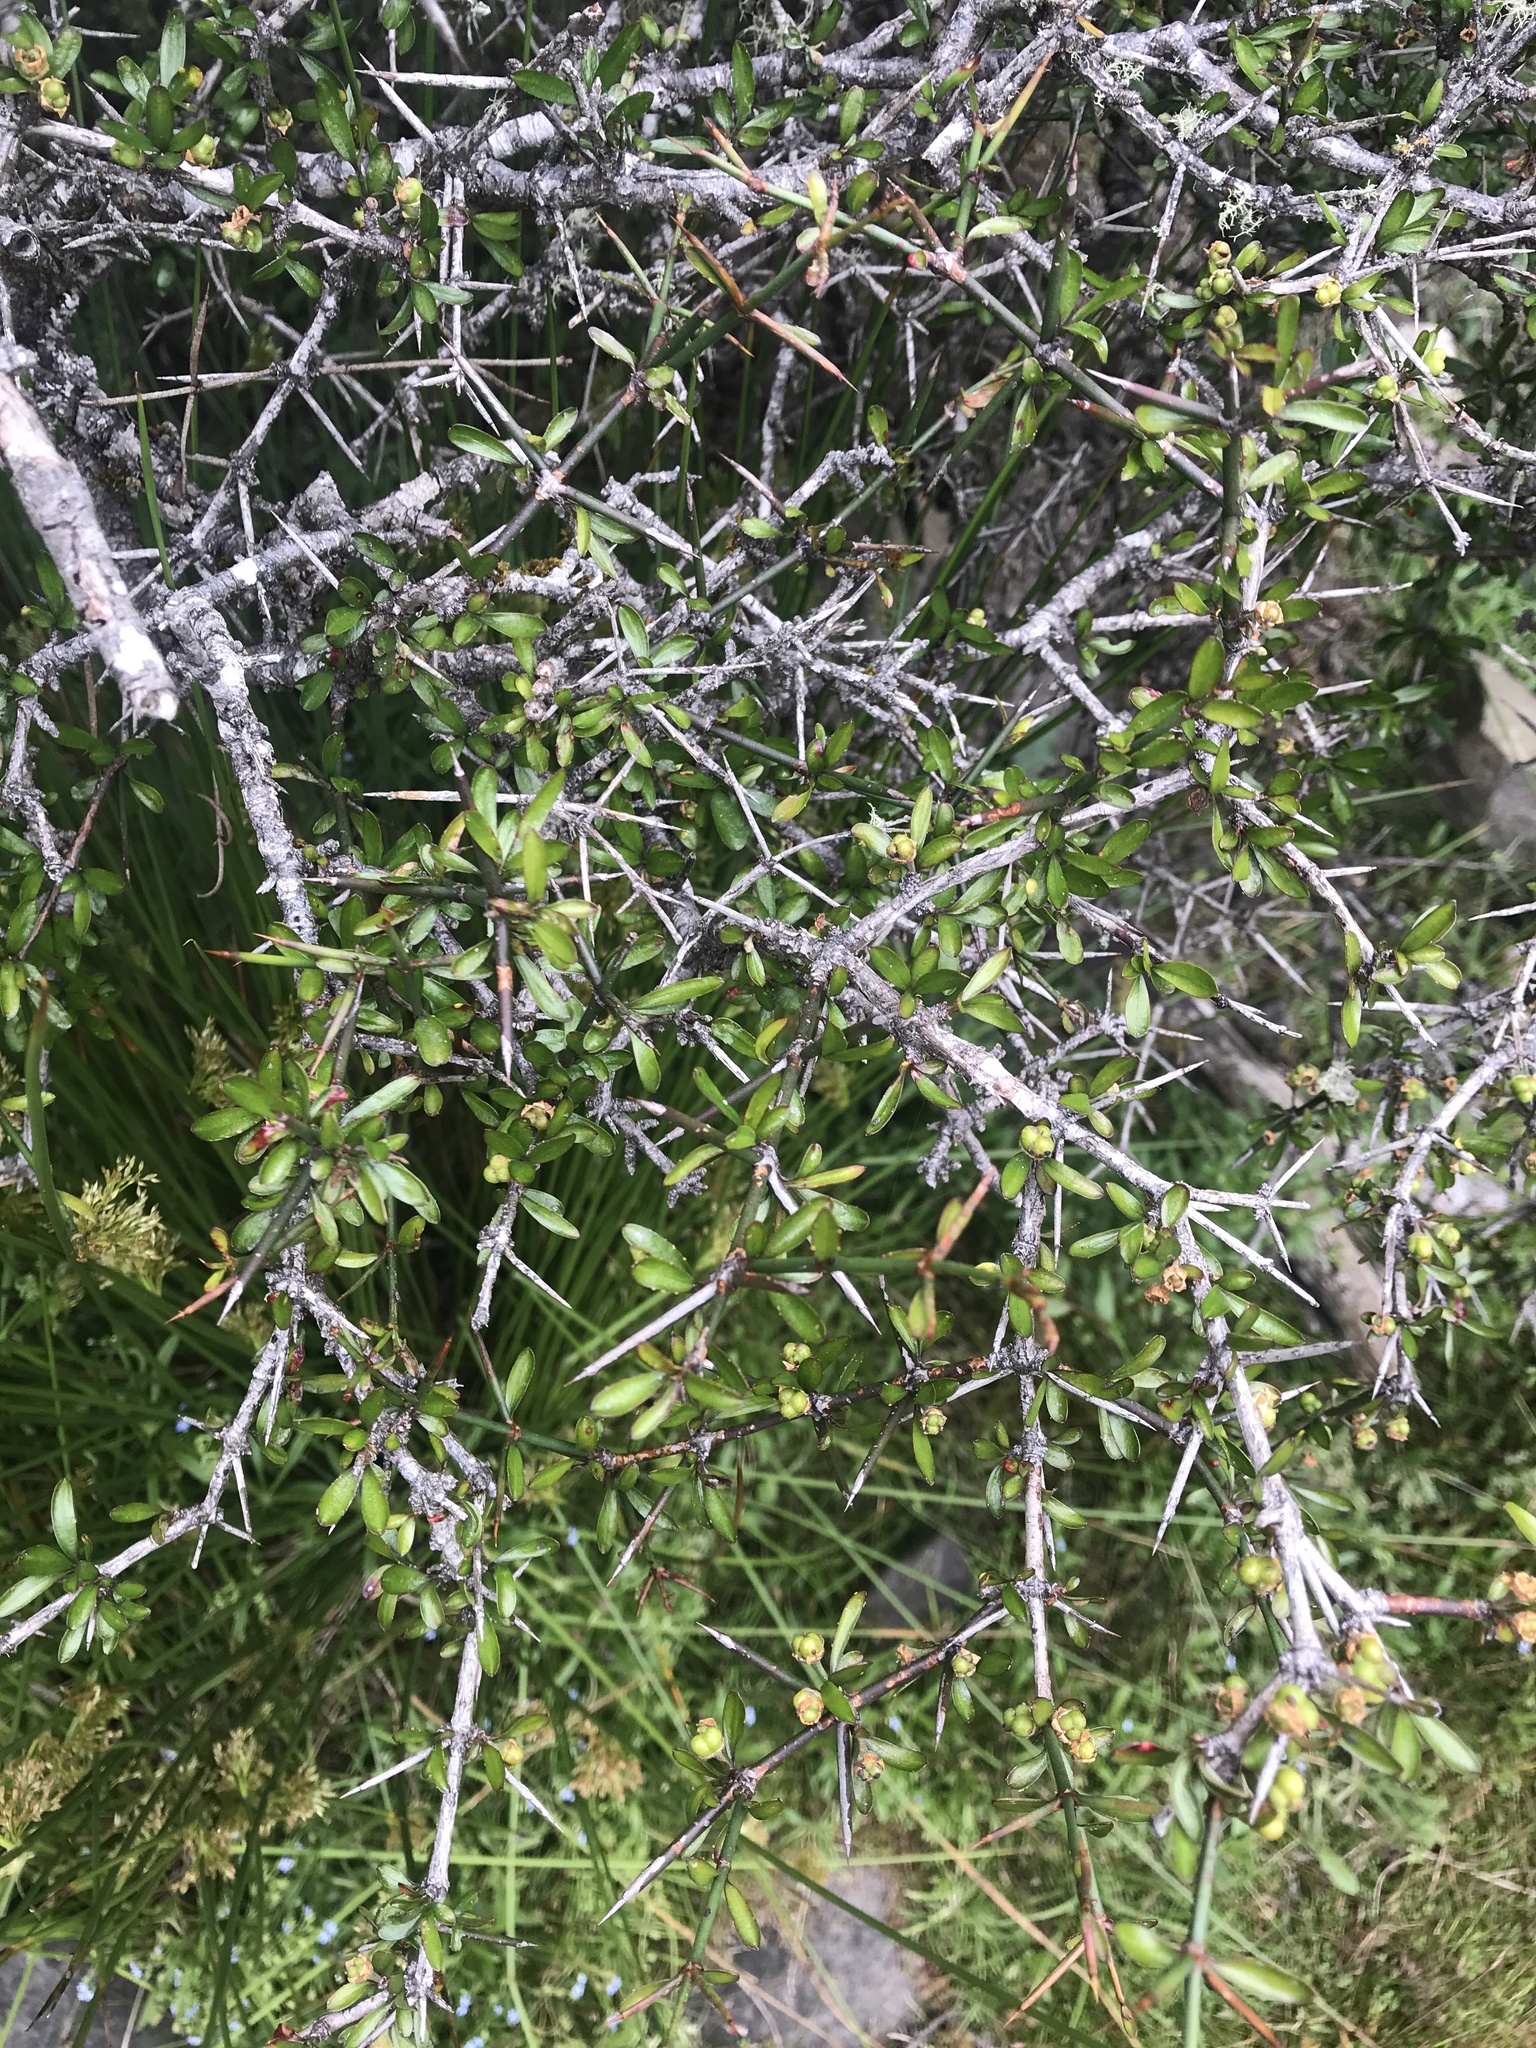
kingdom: Plantae
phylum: Tracheophyta
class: Magnoliopsida
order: Rosales
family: Rhamnaceae
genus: Discaria
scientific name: Discaria toumatou
